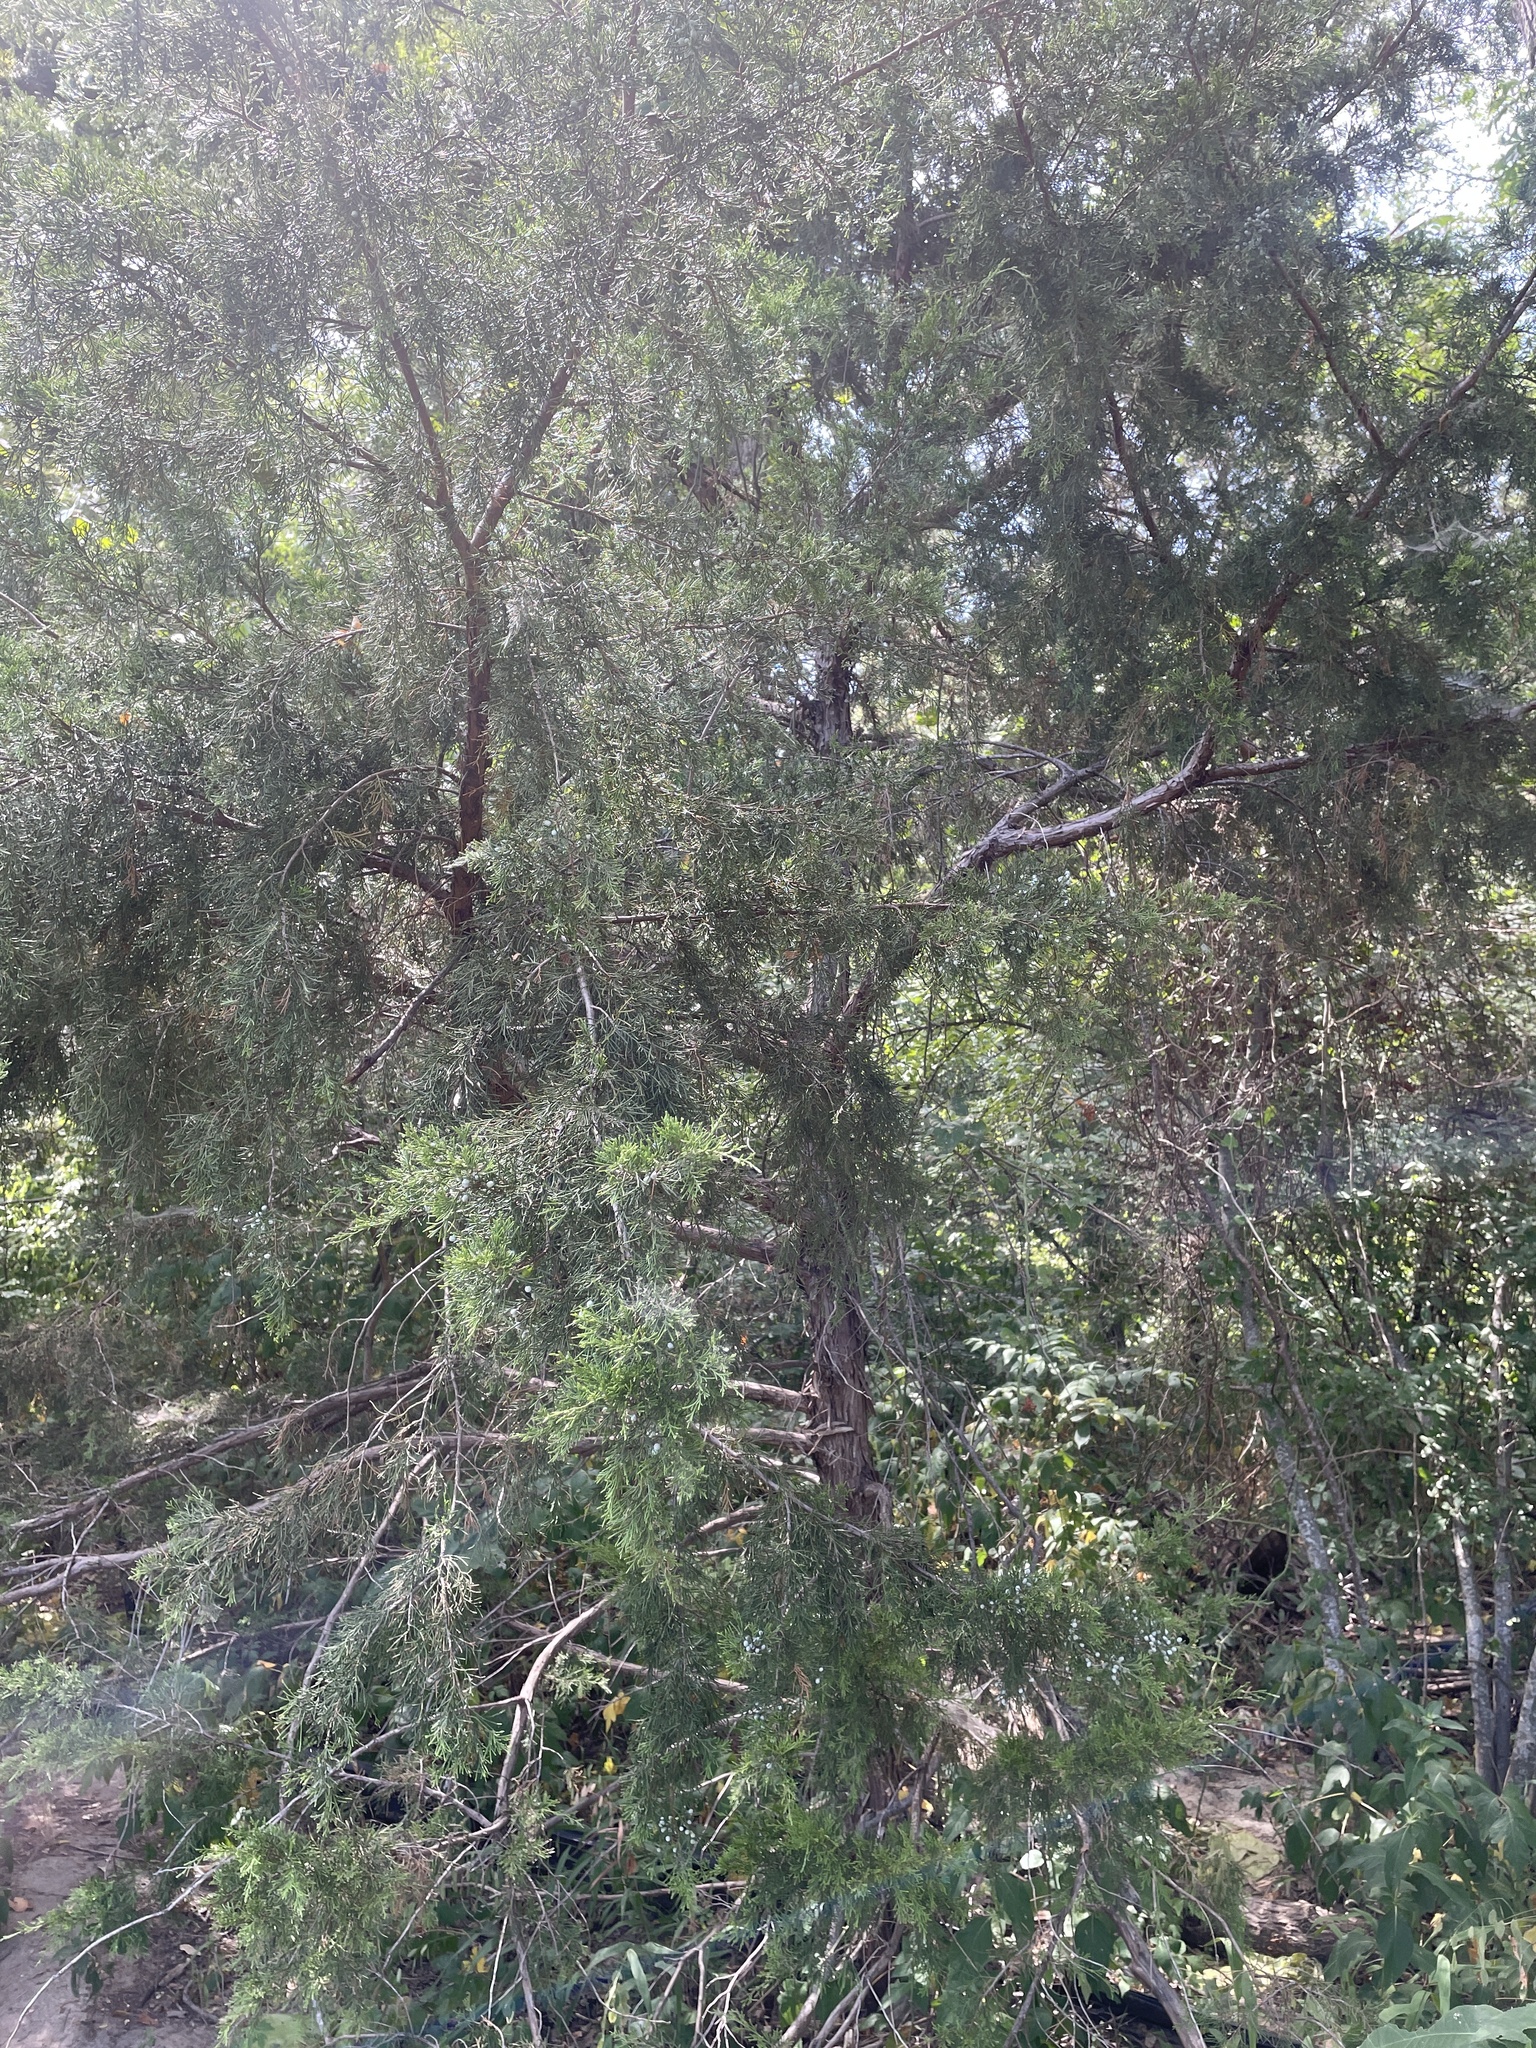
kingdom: Plantae
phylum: Tracheophyta
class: Pinopsida
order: Pinales
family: Cupressaceae
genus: Juniperus
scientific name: Juniperus virginiana
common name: Red juniper
